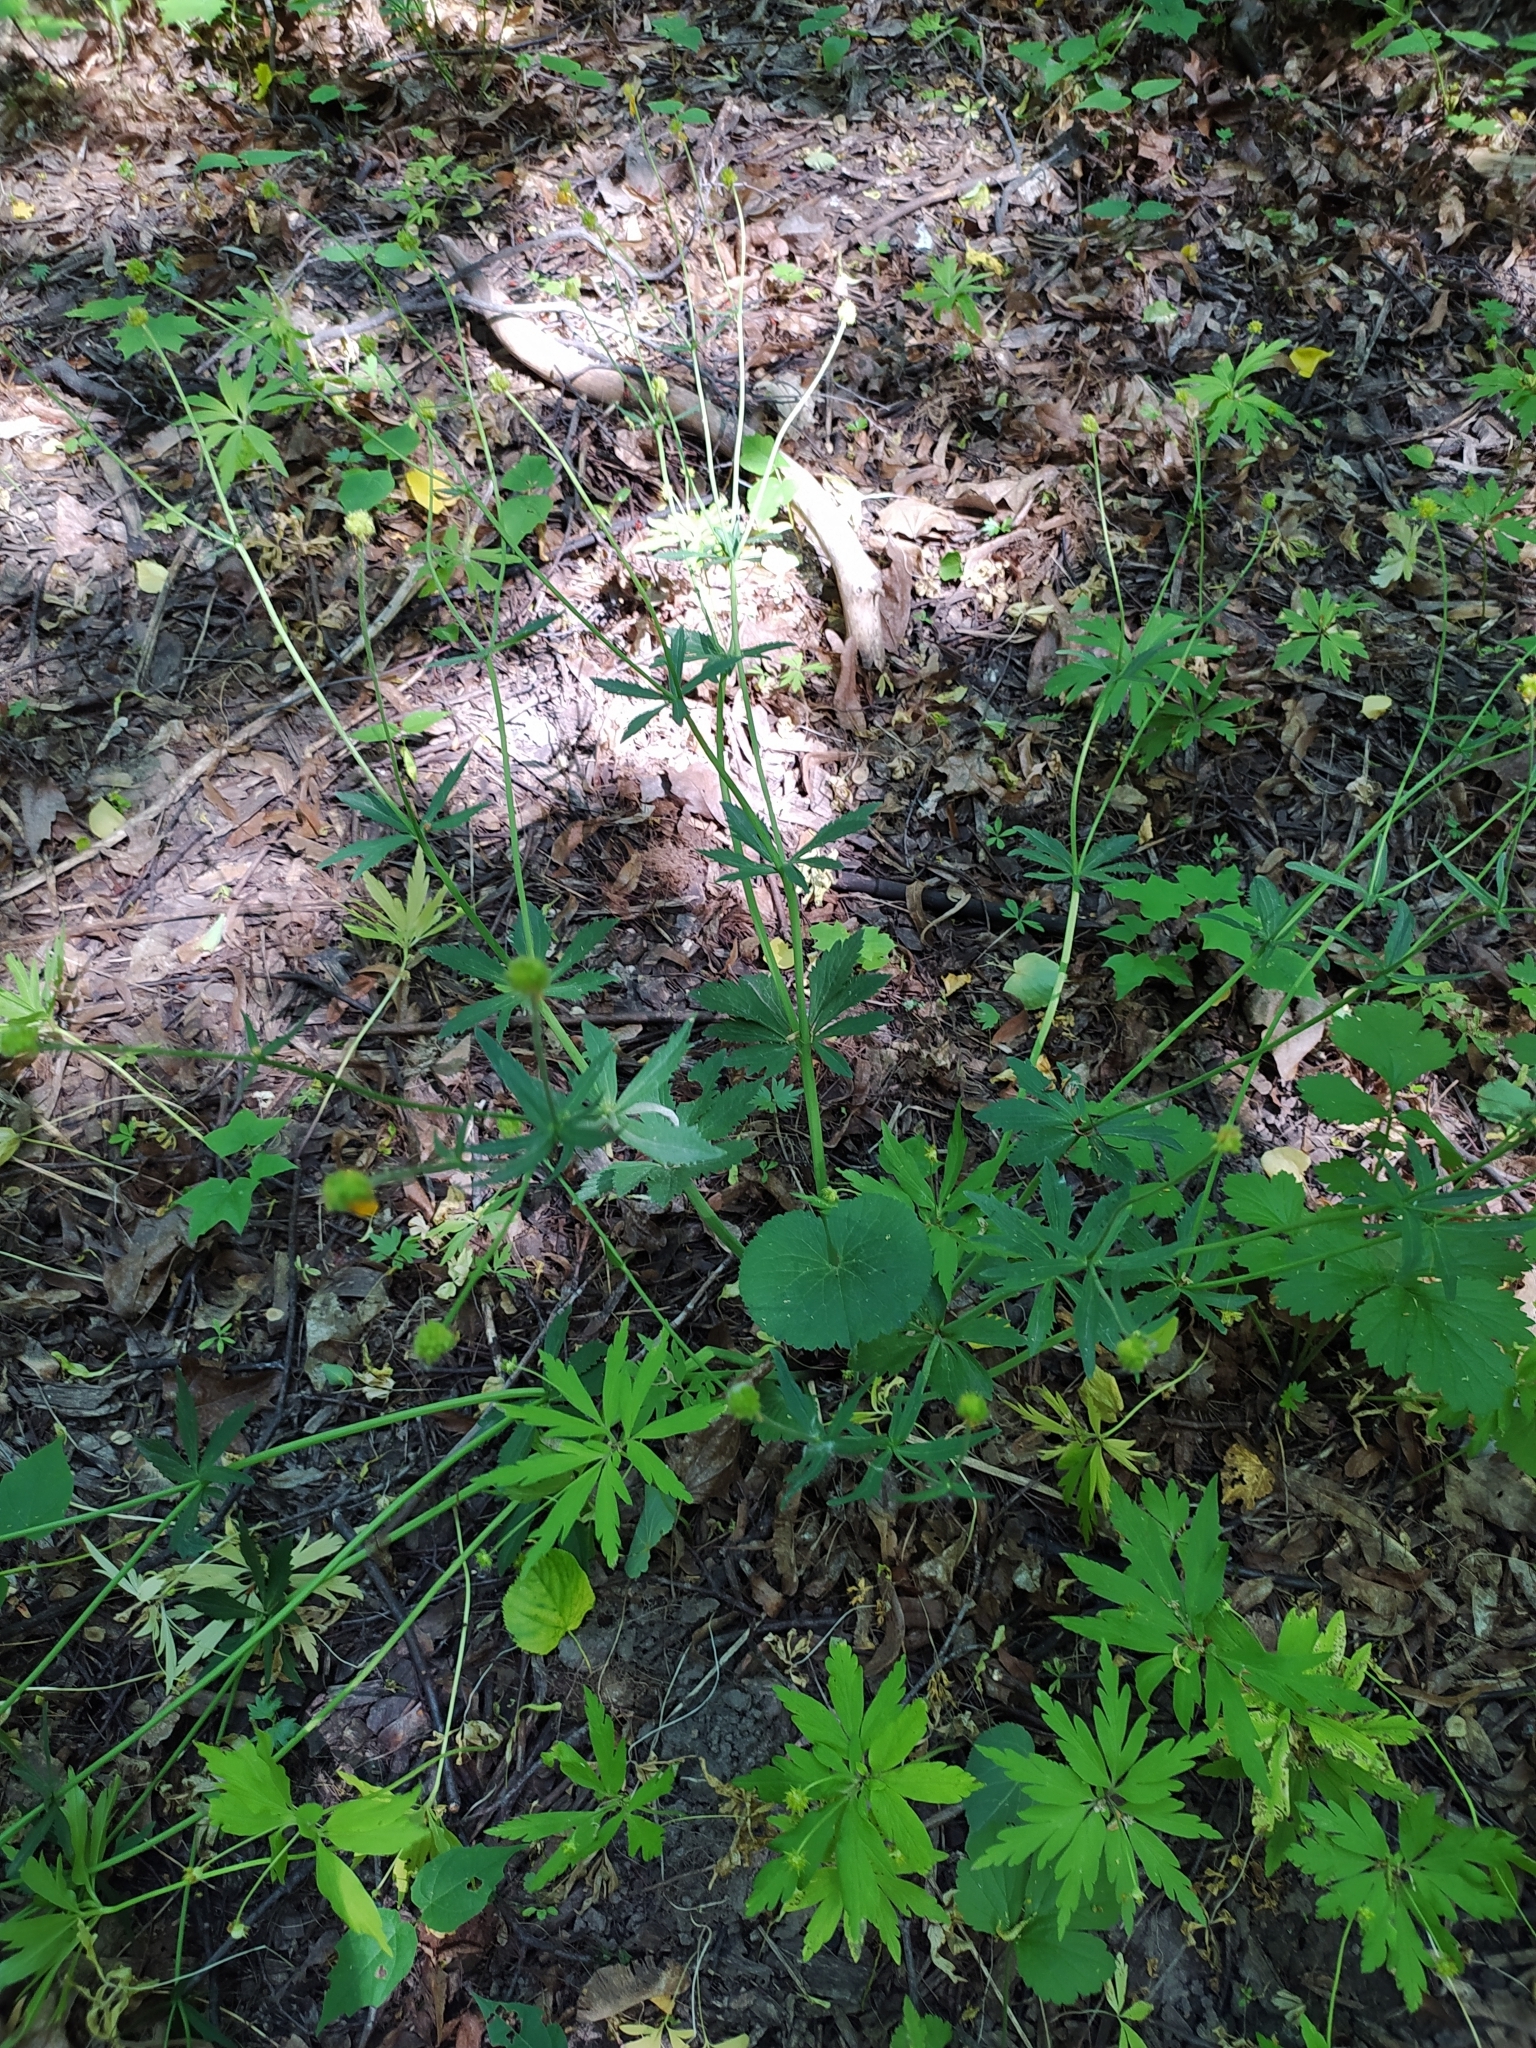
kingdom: Plantae
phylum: Tracheophyta
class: Magnoliopsida
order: Ranunculales
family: Ranunculaceae
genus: Ranunculus
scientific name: Ranunculus cassubicus
